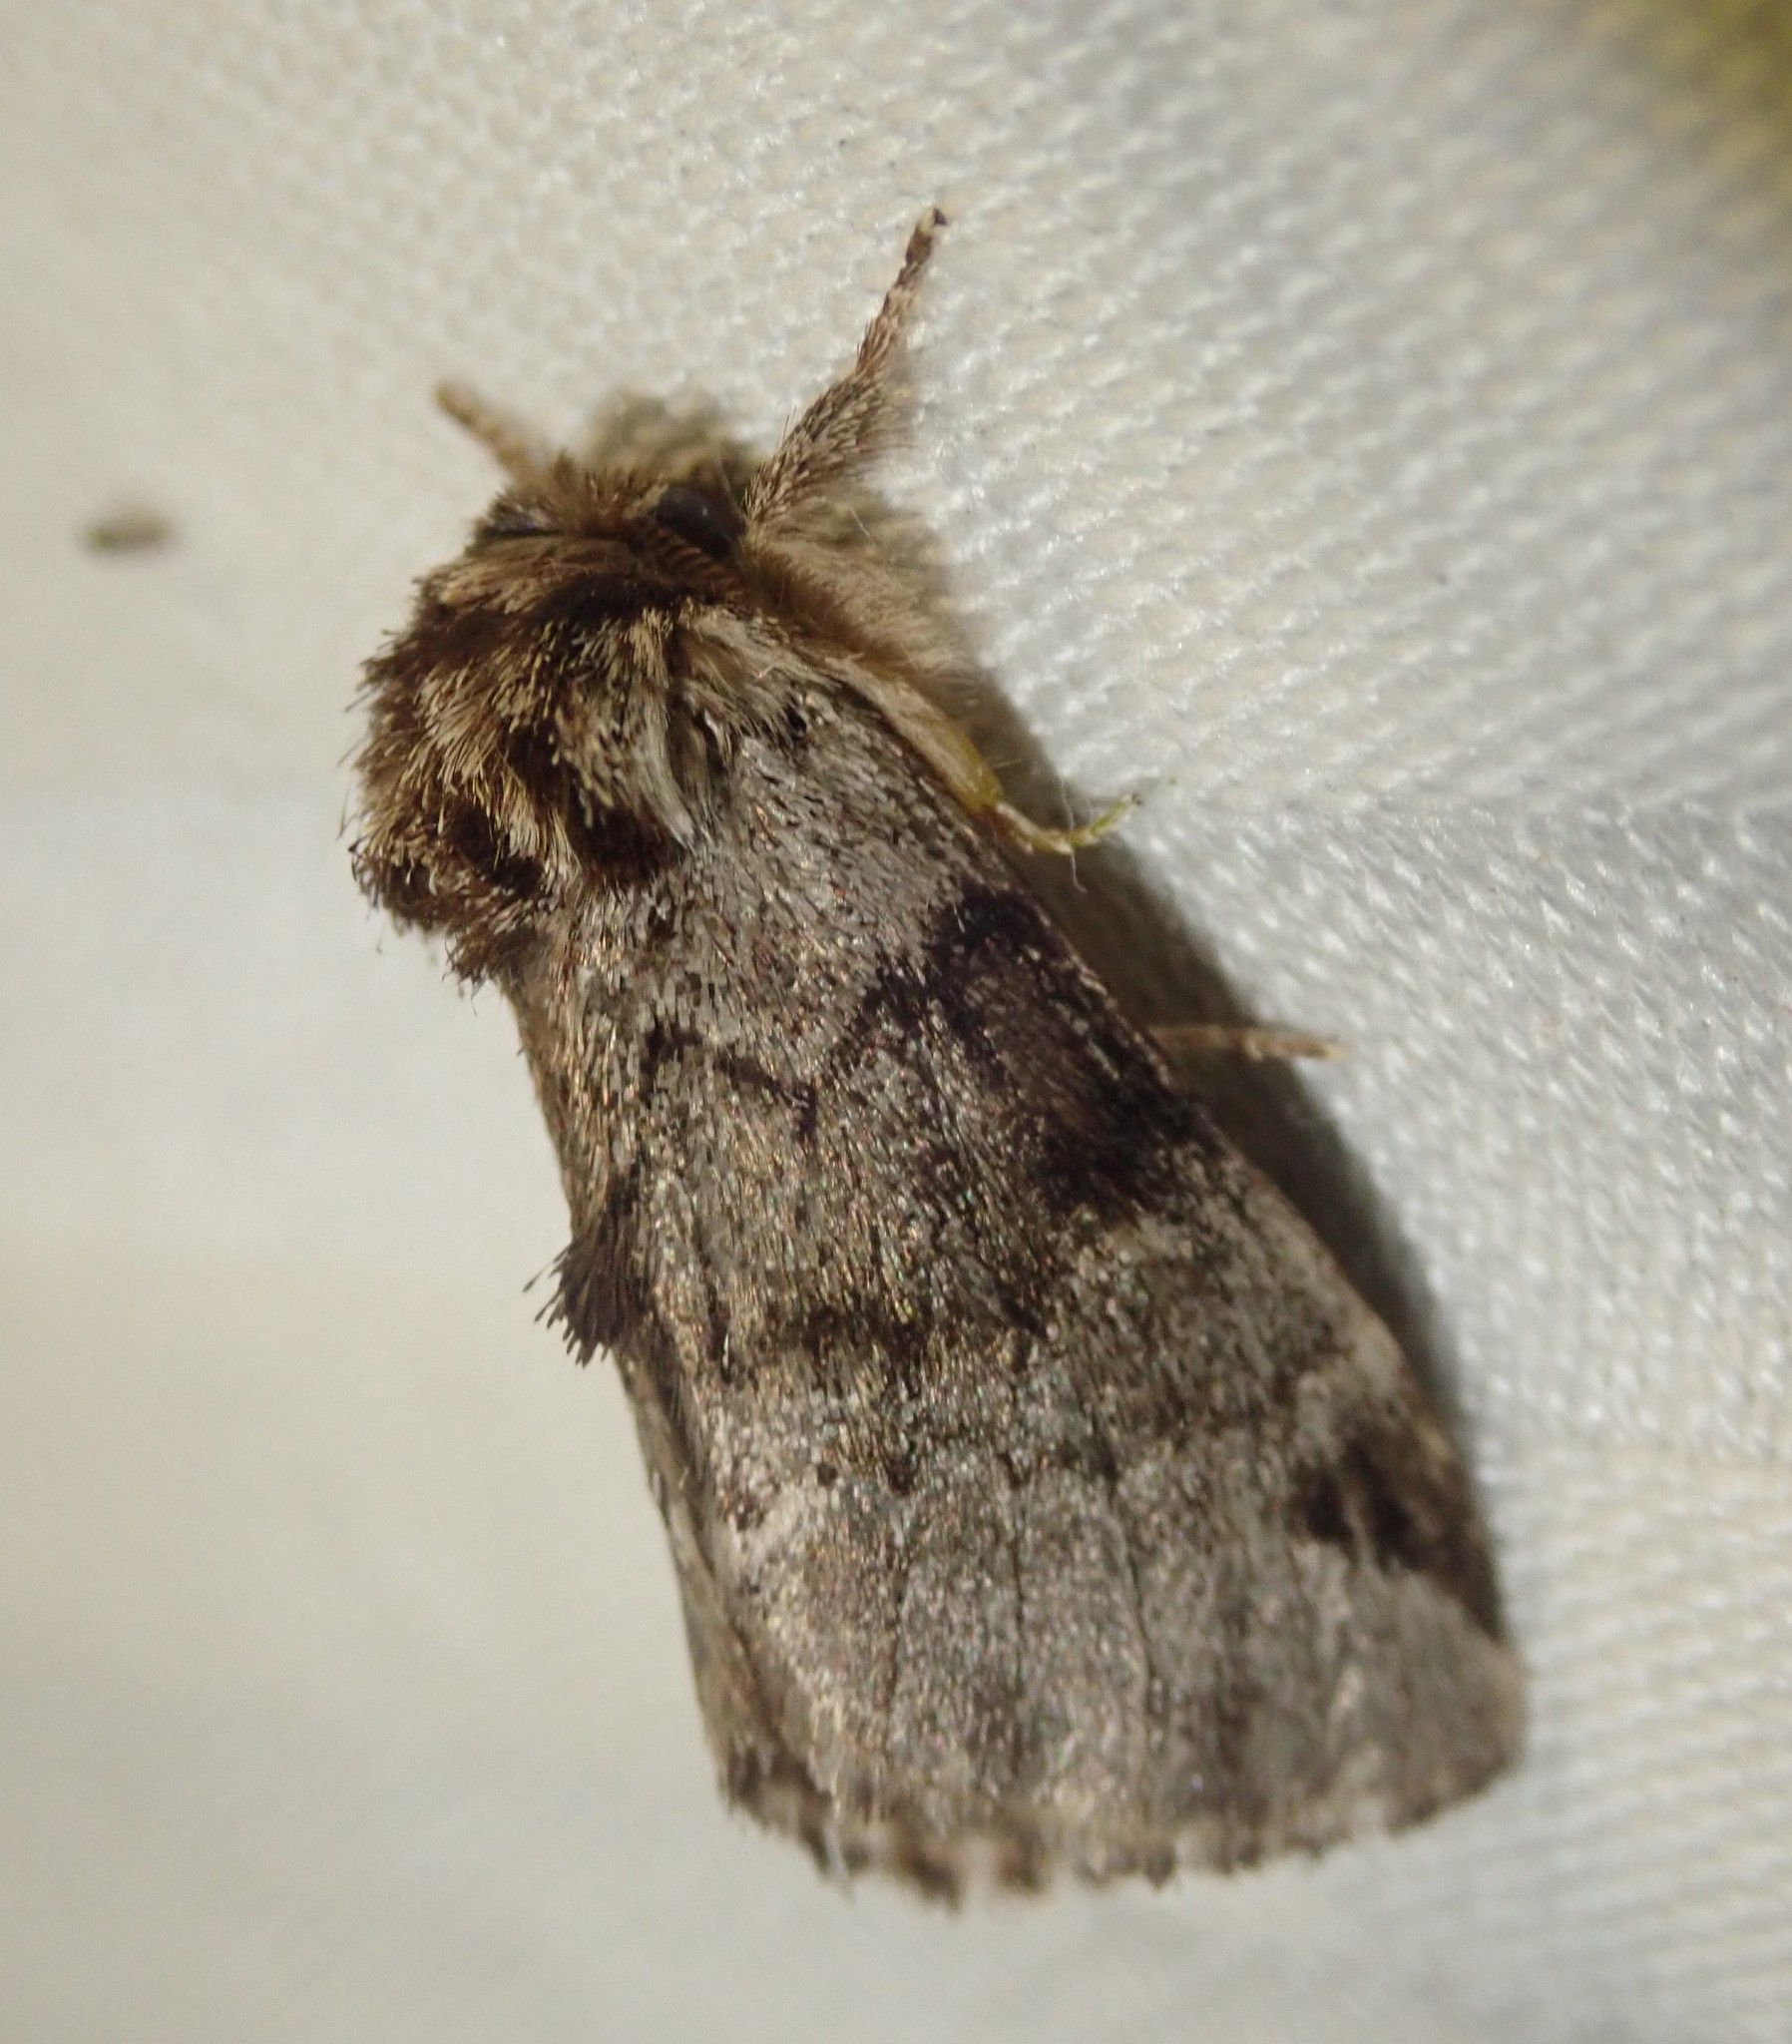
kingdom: Animalia
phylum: Arthropoda
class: Insecta
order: Lepidoptera
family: Notodontidae
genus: Drymonia
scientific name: Drymonia obliterata
